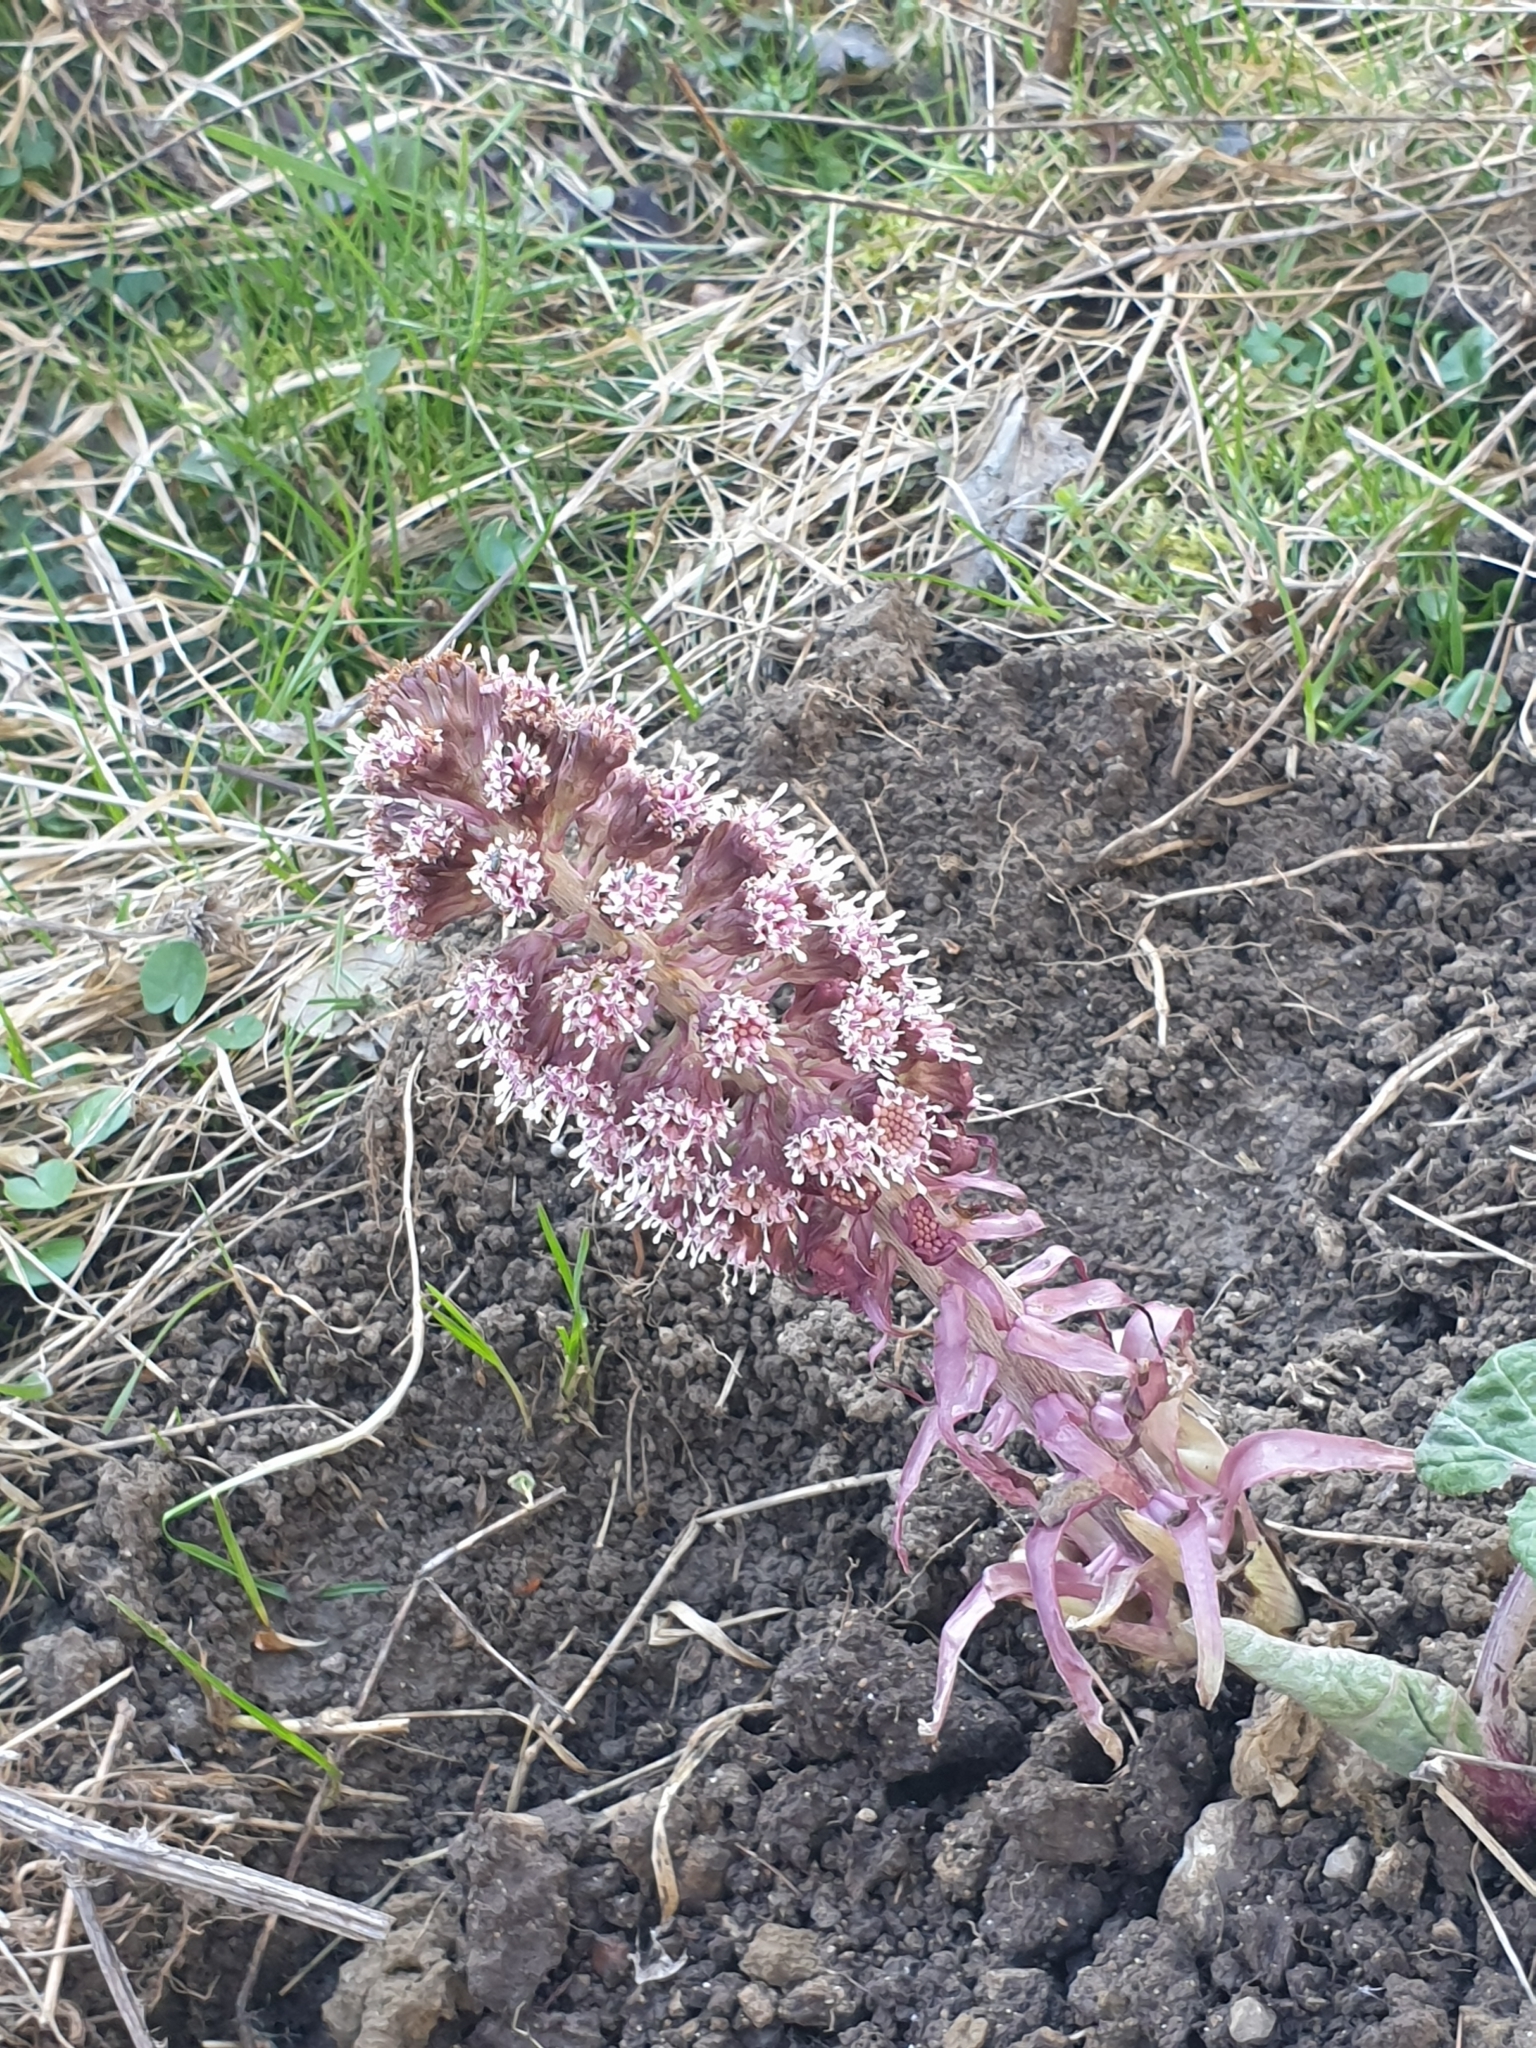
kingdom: Plantae
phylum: Tracheophyta
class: Magnoliopsida
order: Asterales
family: Asteraceae
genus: Petasites
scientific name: Petasites hybridus
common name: Butterbur
